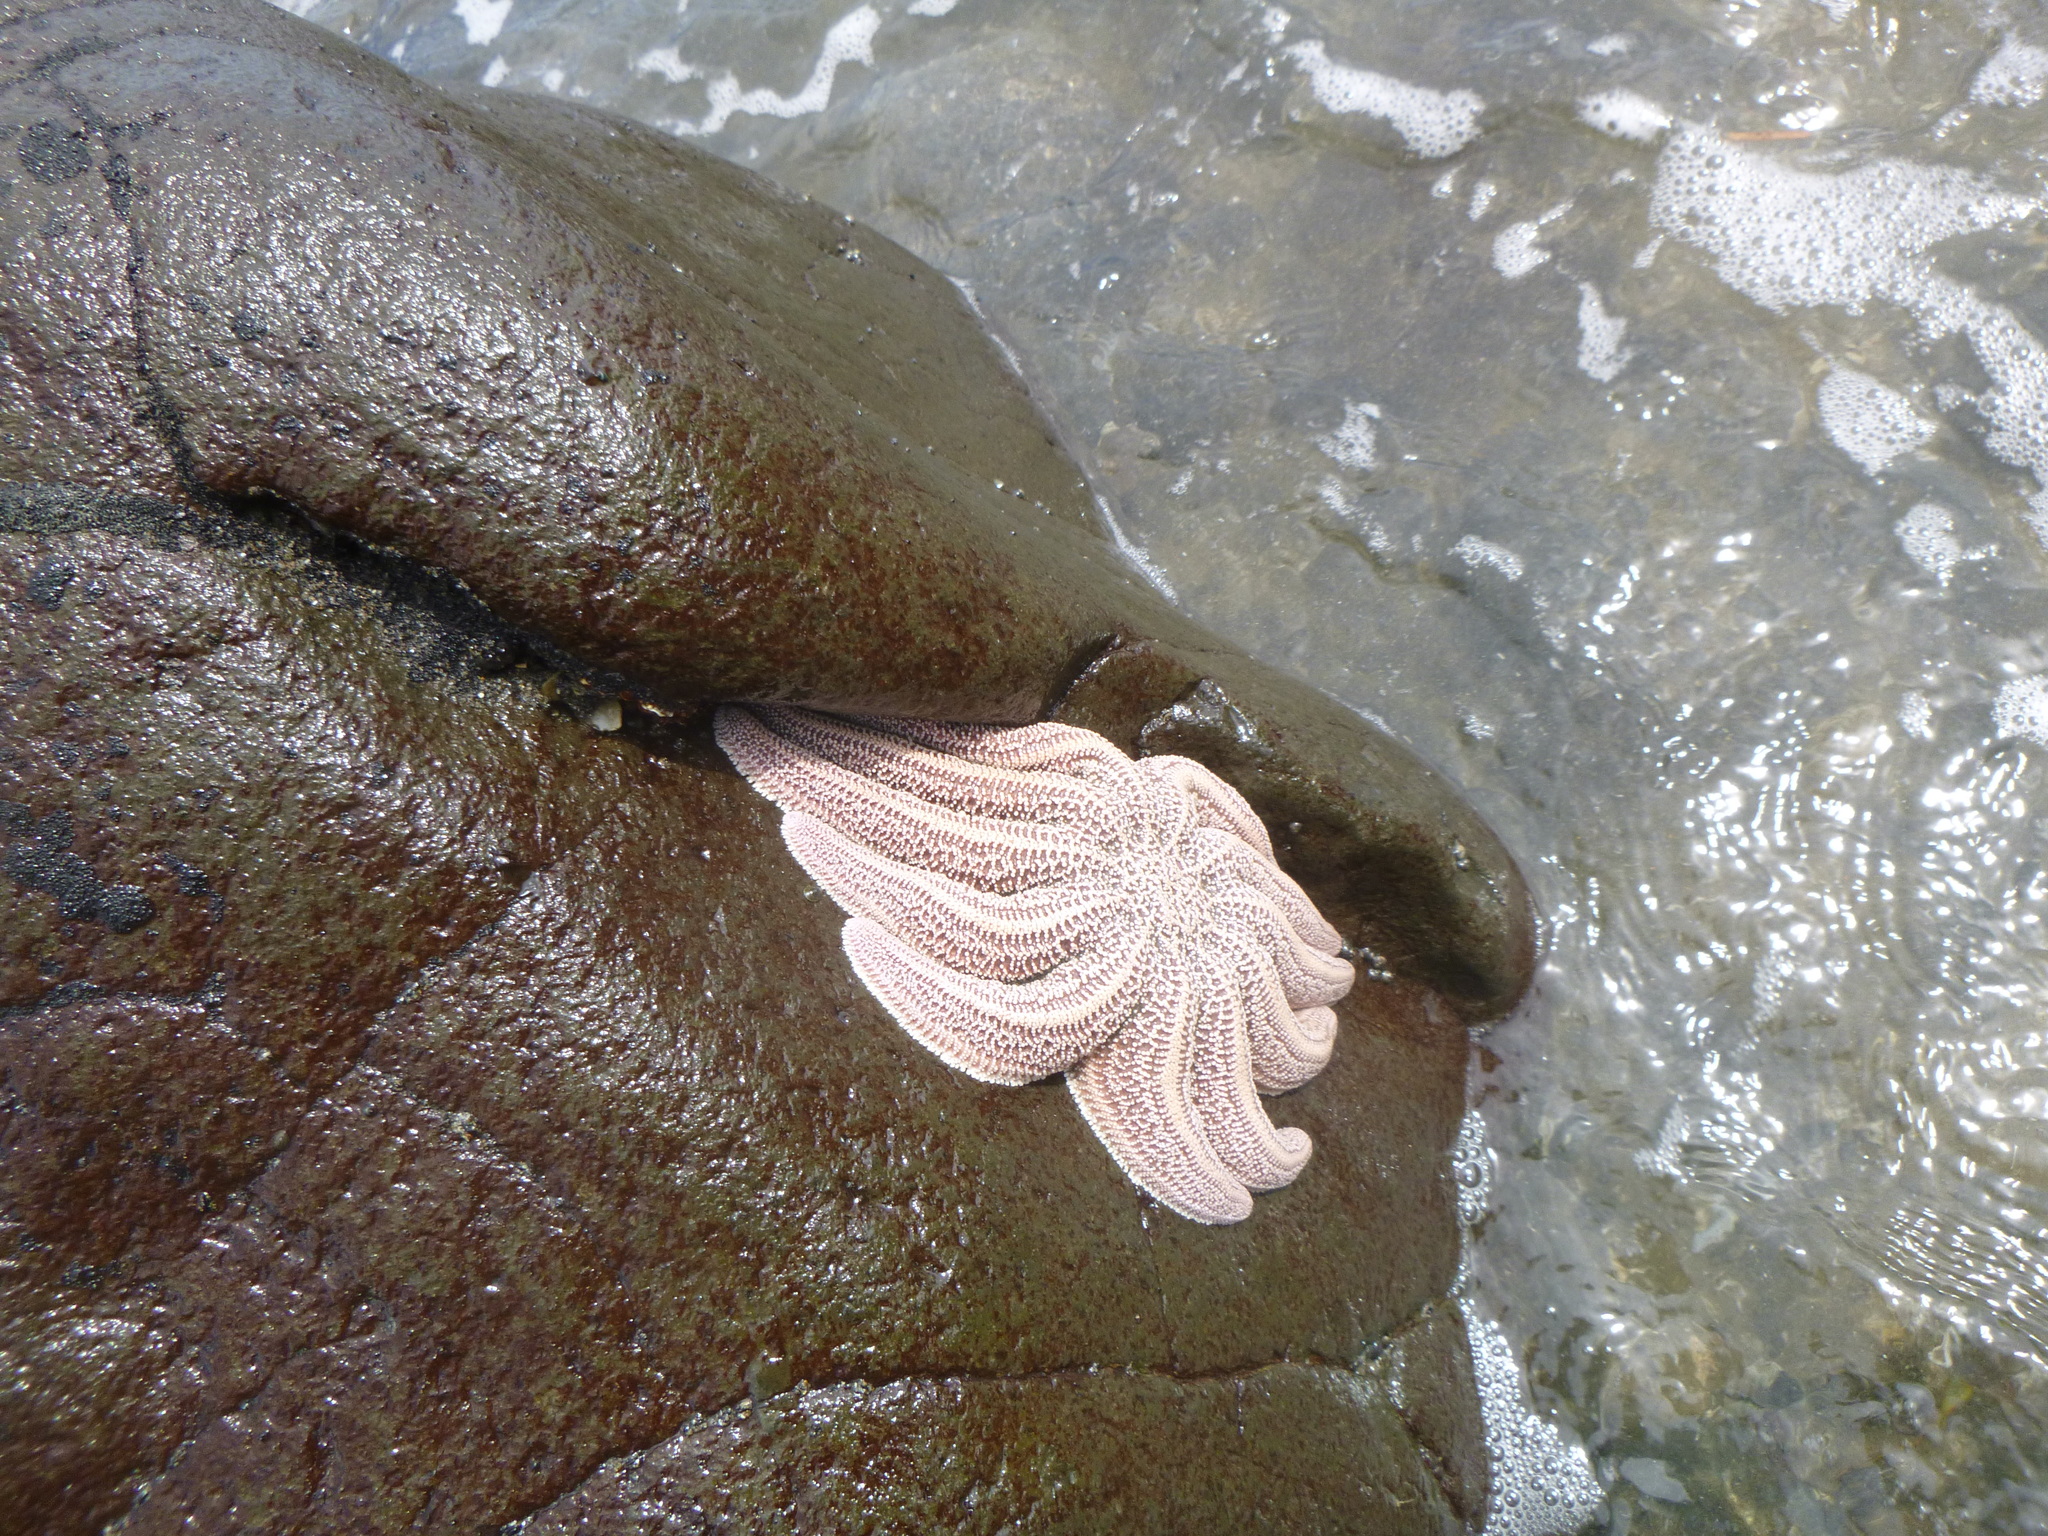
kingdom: Animalia
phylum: Echinodermata
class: Asteroidea
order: Forcipulatida
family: Stichasteridae
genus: Stichaster
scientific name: Stichaster australis
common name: Reef starfish
